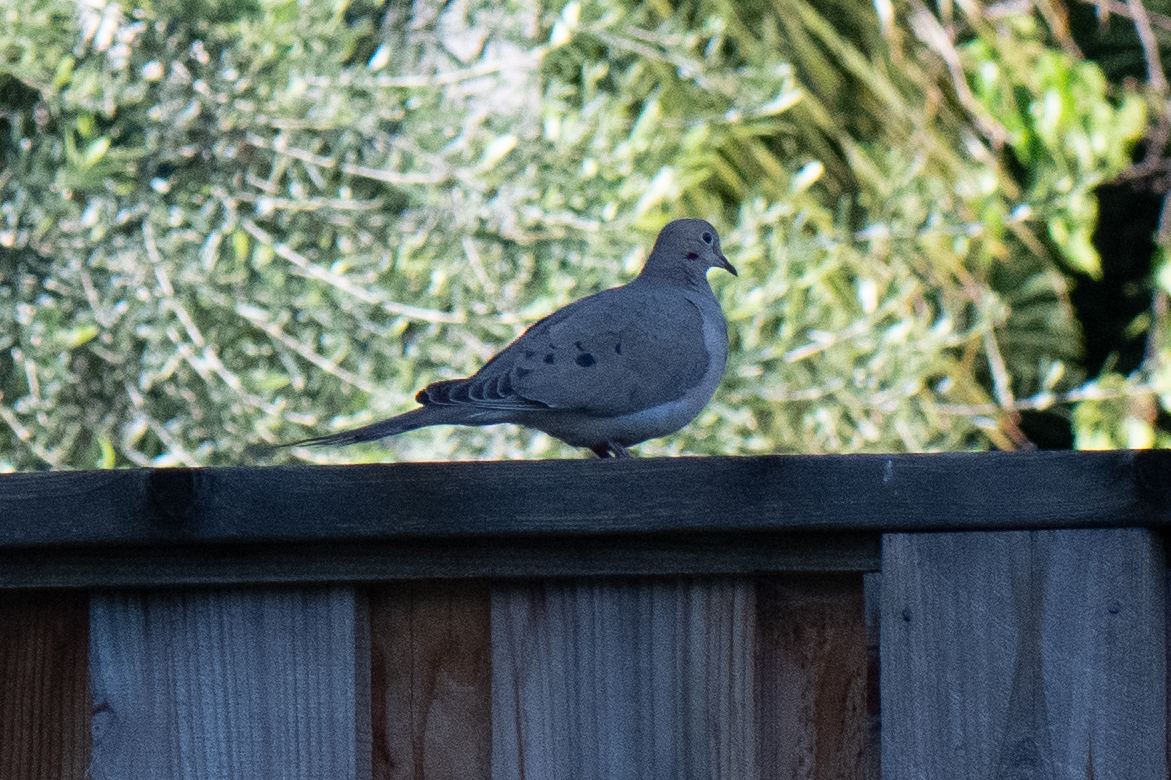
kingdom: Animalia
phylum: Chordata
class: Aves
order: Columbiformes
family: Columbidae
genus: Zenaida
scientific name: Zenaida macroura
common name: Mourning dove
